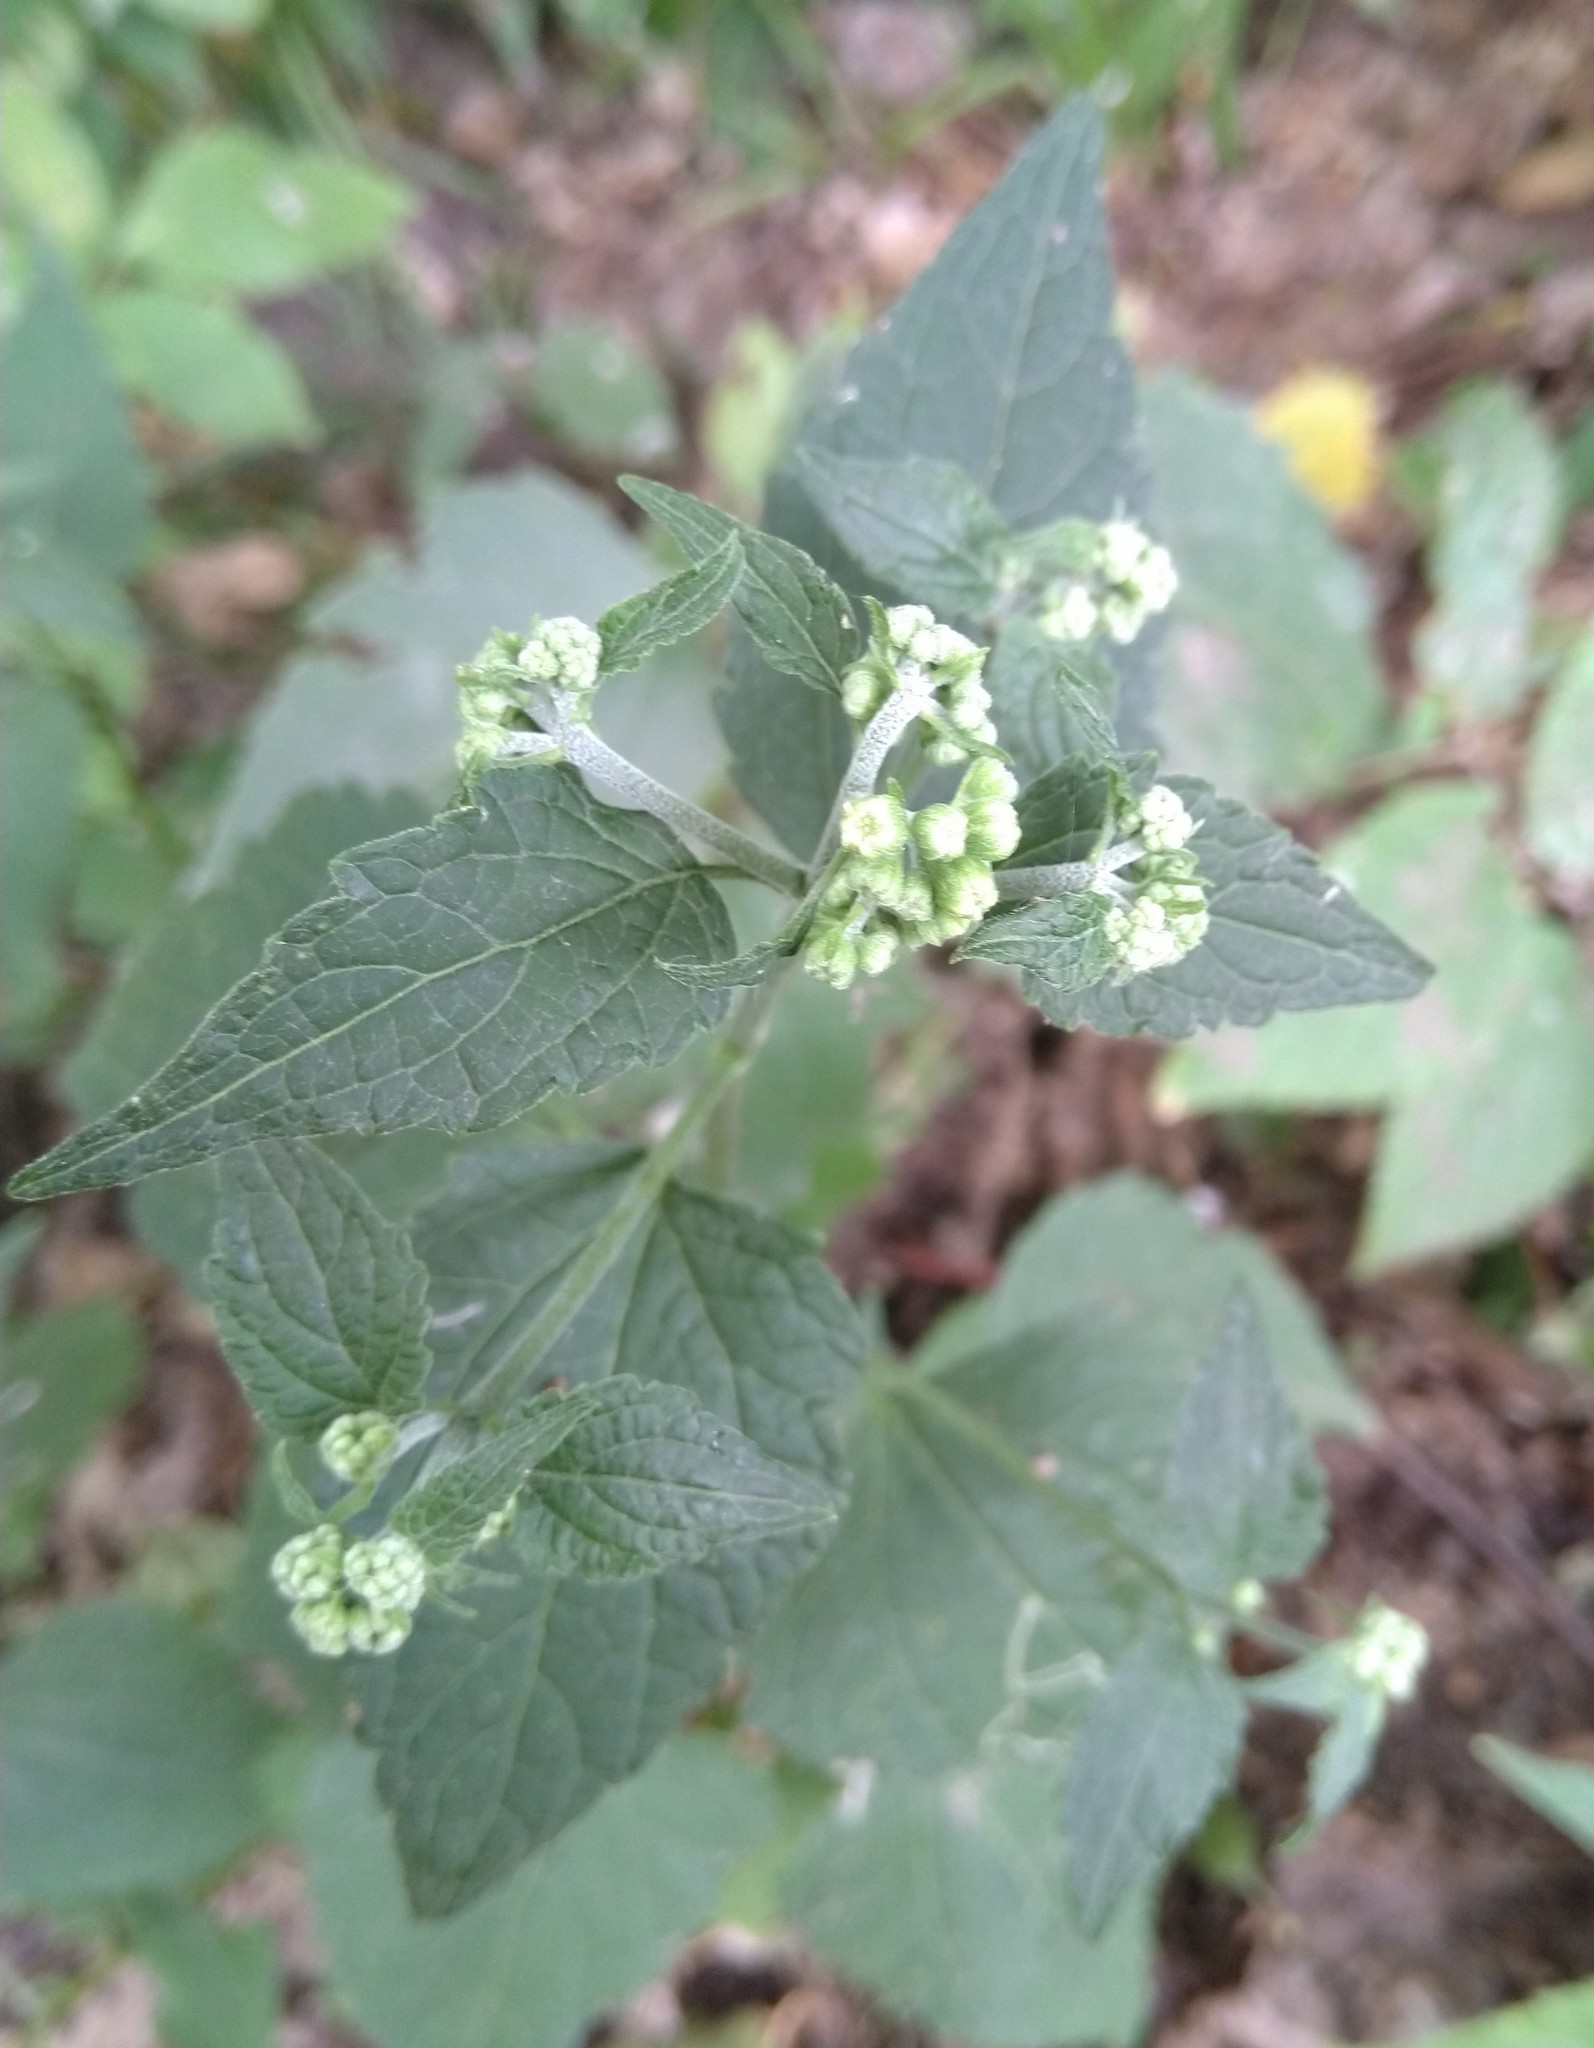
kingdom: Plantae
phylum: Tracheophyta
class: Magnoliopsida
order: Asterales
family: Asteraceae
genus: Ageratina
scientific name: Ageratina altissima
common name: White snakeroot
